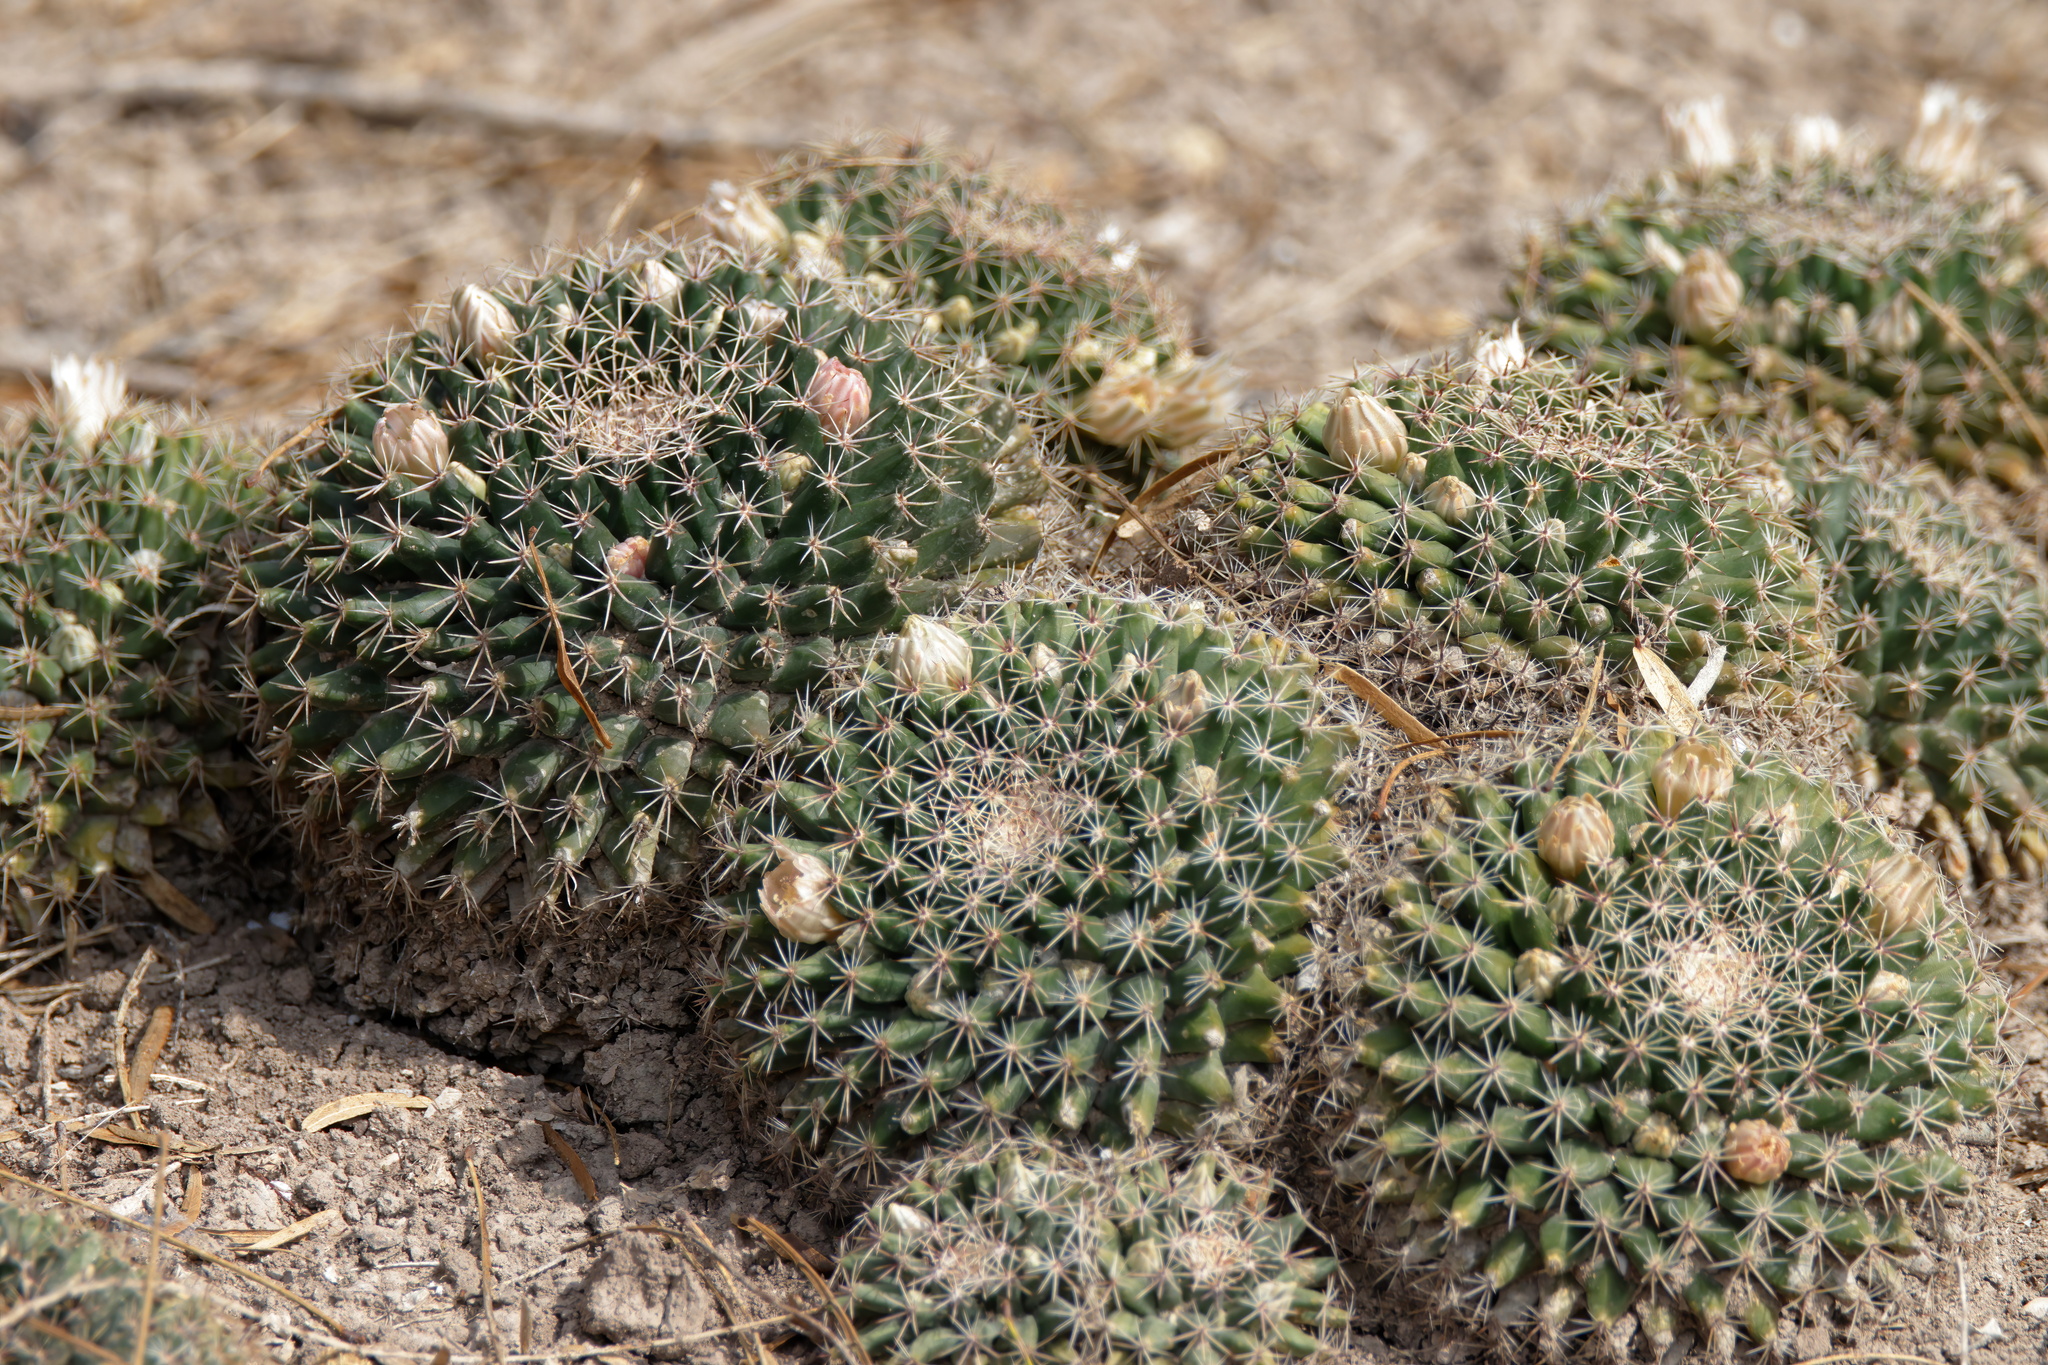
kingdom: Plantae
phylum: Tracheophyta
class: Magnoliopsida
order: Caryophyllales
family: Cactaceae
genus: Mammillaria
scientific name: Mammillaria heyderi
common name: Little nipple cactus
